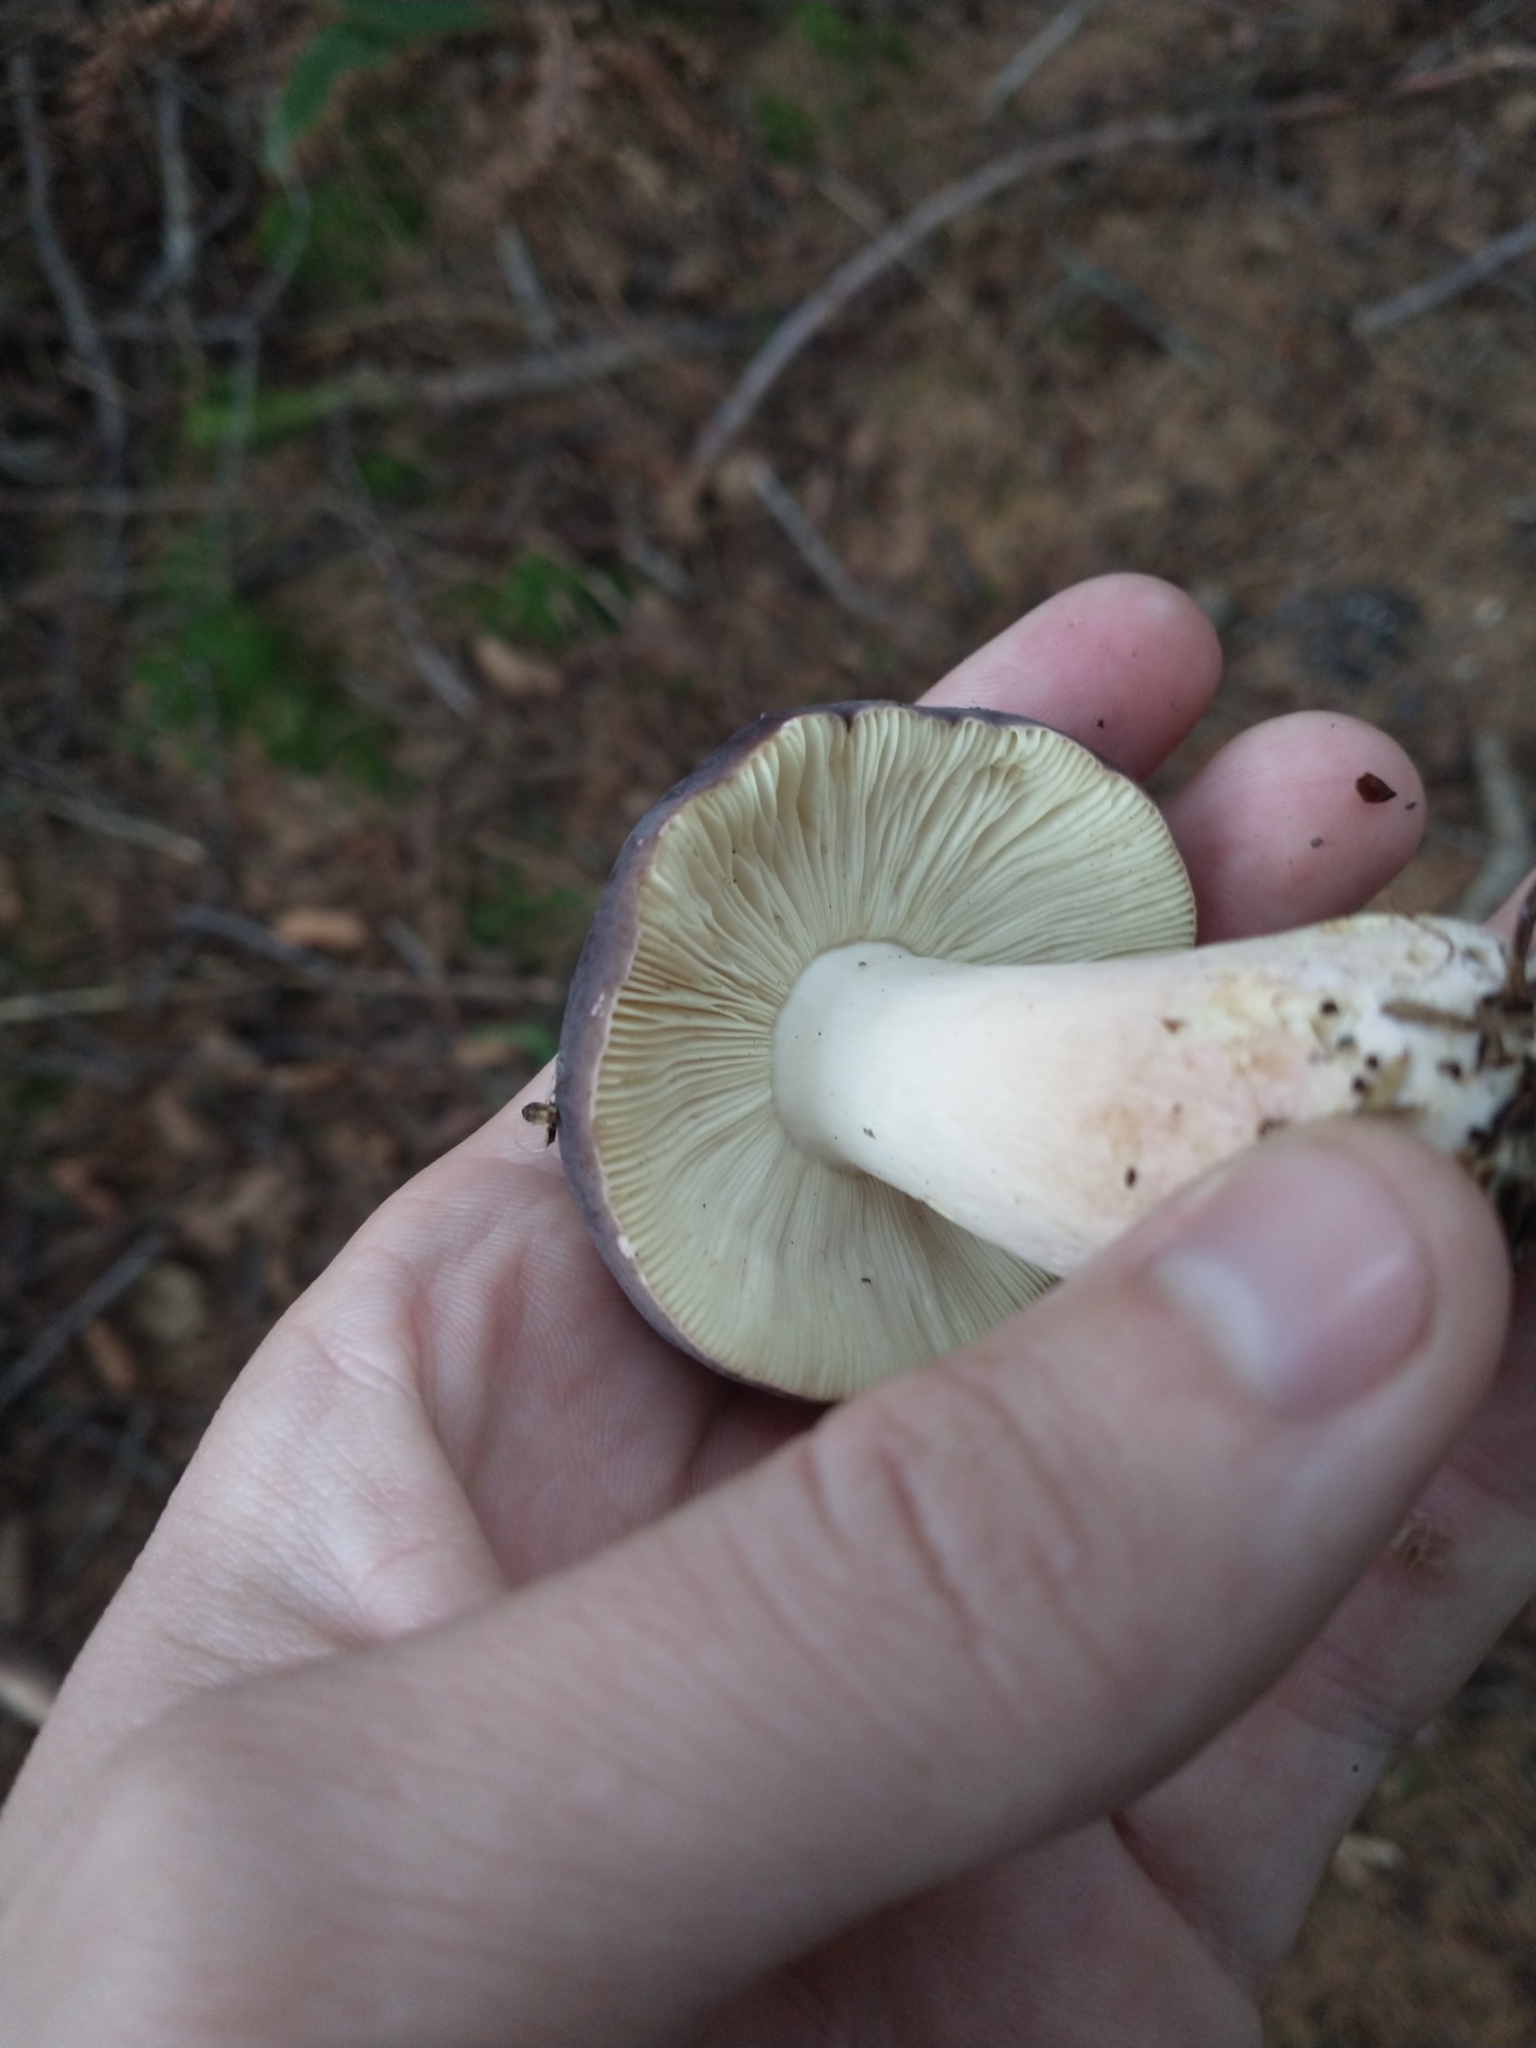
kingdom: Fungi
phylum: Basidiomycota
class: Agaricomycetes
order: Russulales
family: Russulaceae
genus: Russula
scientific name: Russula xerampelina
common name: Crab brittlegill
